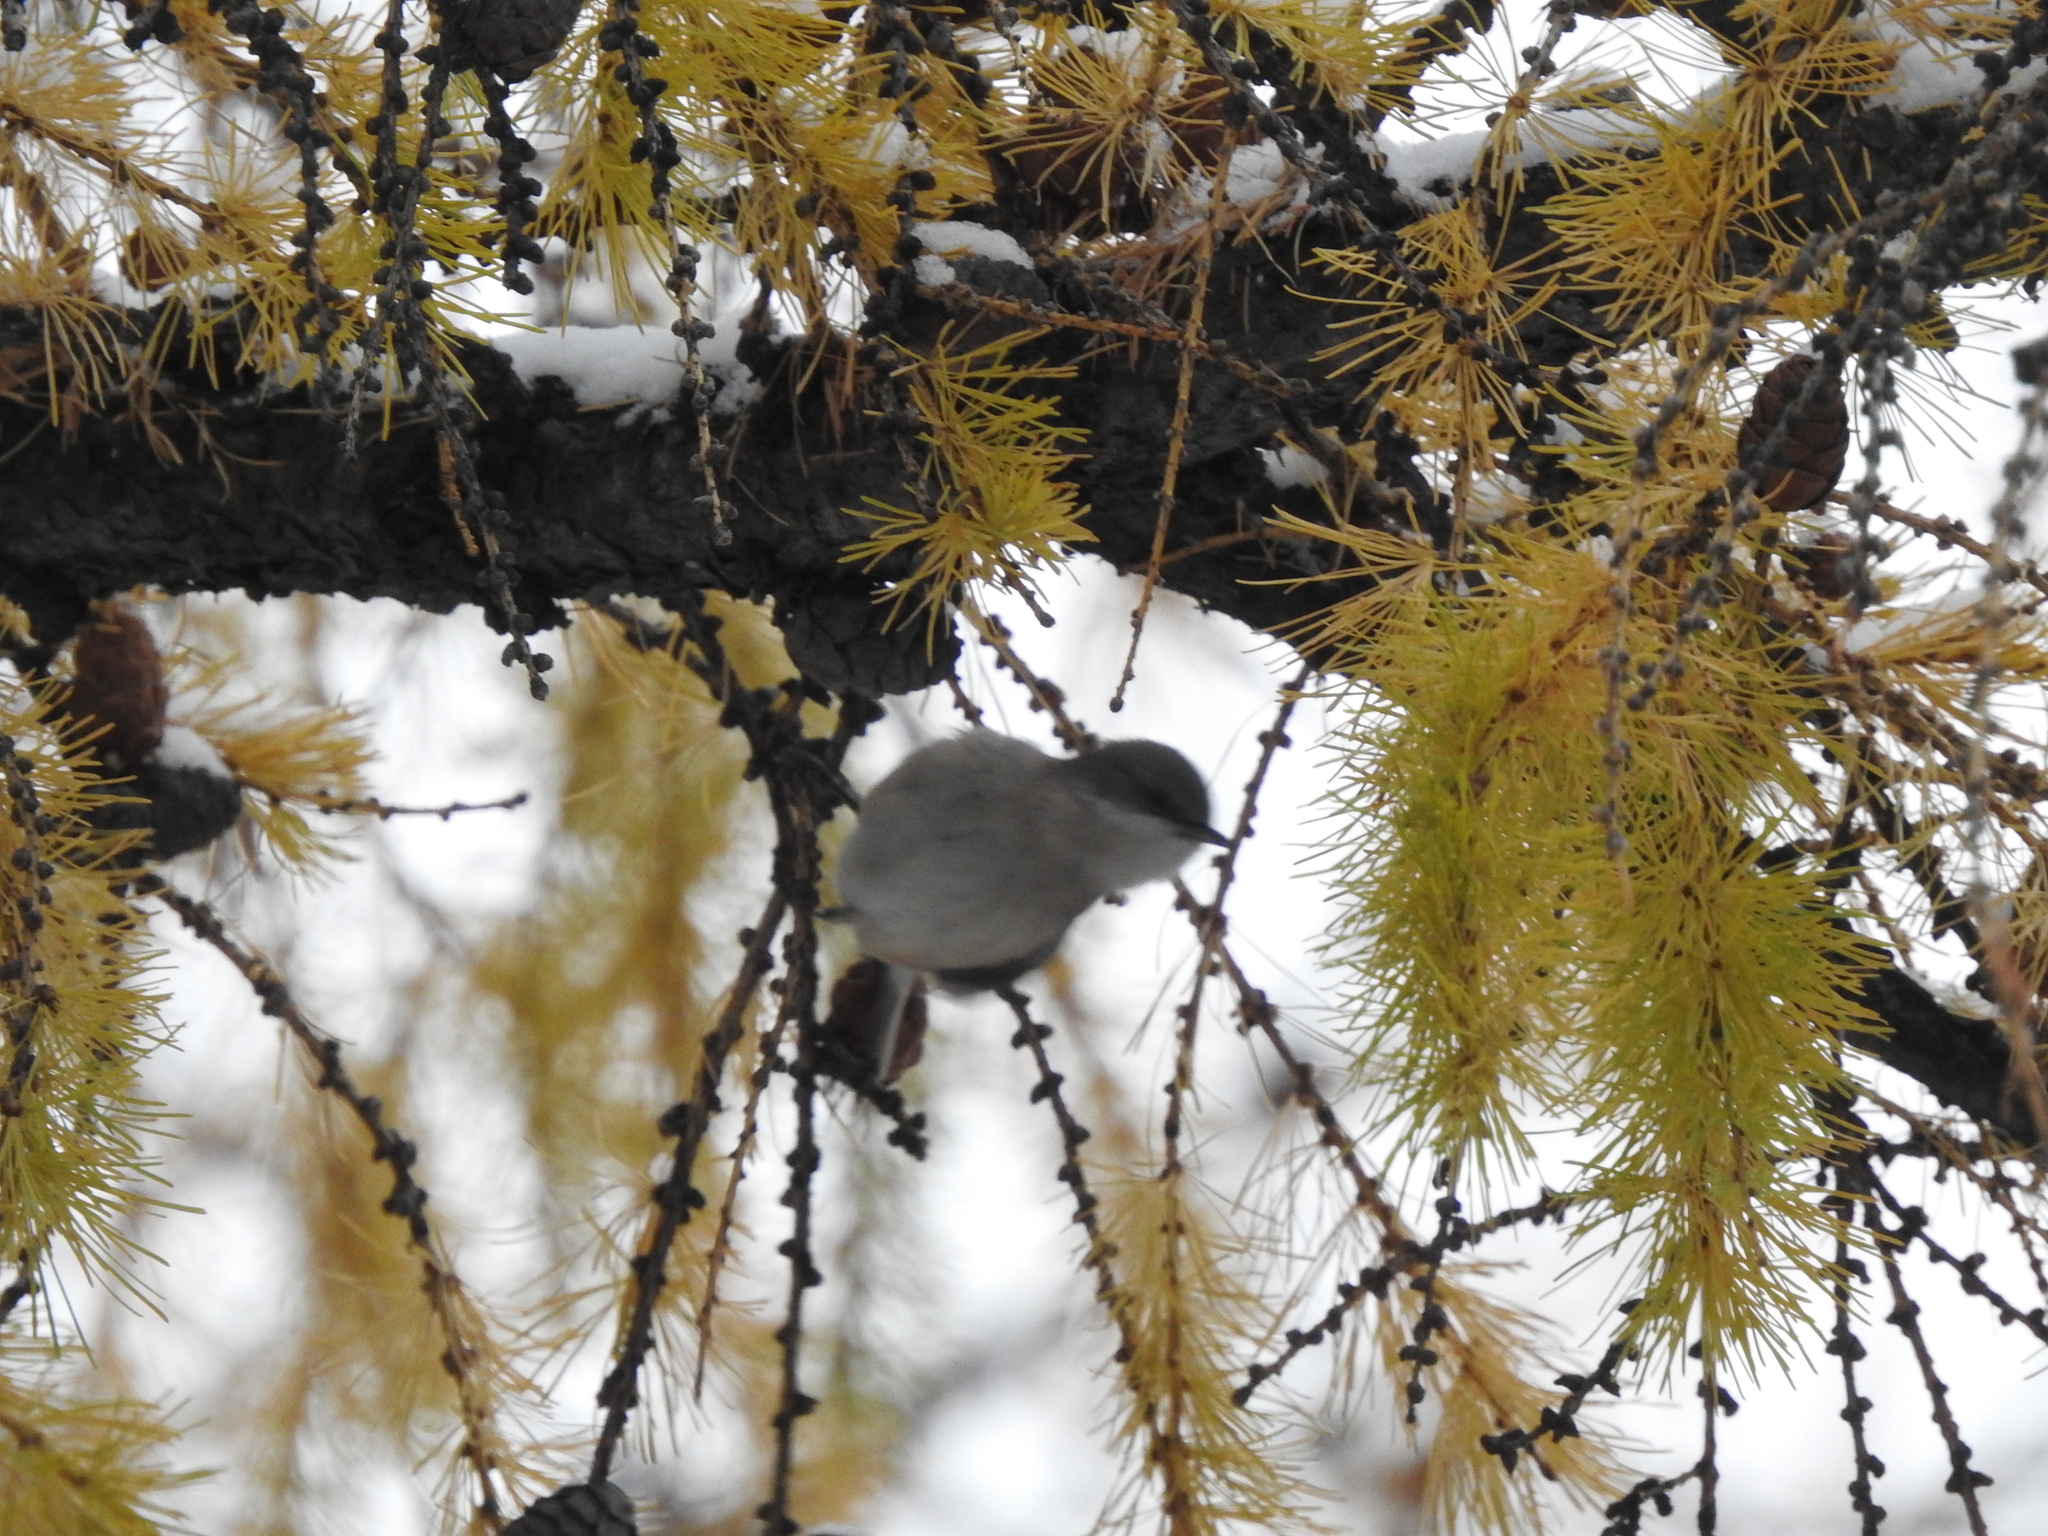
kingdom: Animalia
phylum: Chordata
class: Aves
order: Passeriformes
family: Sylviidae
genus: Sylvia
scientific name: Sylvia curruca
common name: Lesser whitethroat
